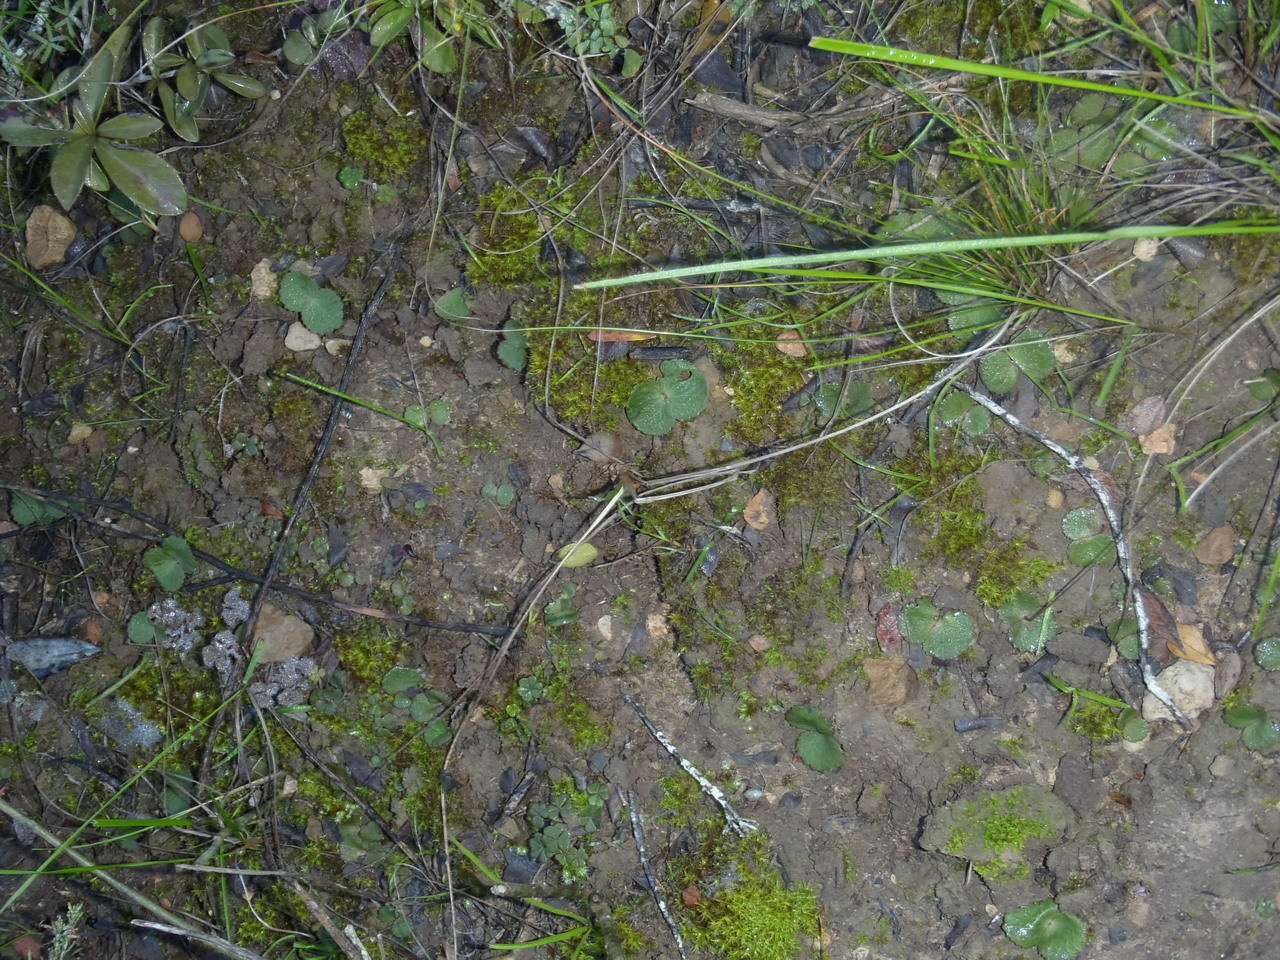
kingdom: Plantae
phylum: Tracheophyta
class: Magnoliopsida
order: Saxifragales
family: Crassulaceae
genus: Crassula
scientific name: Crassula saxifraga
